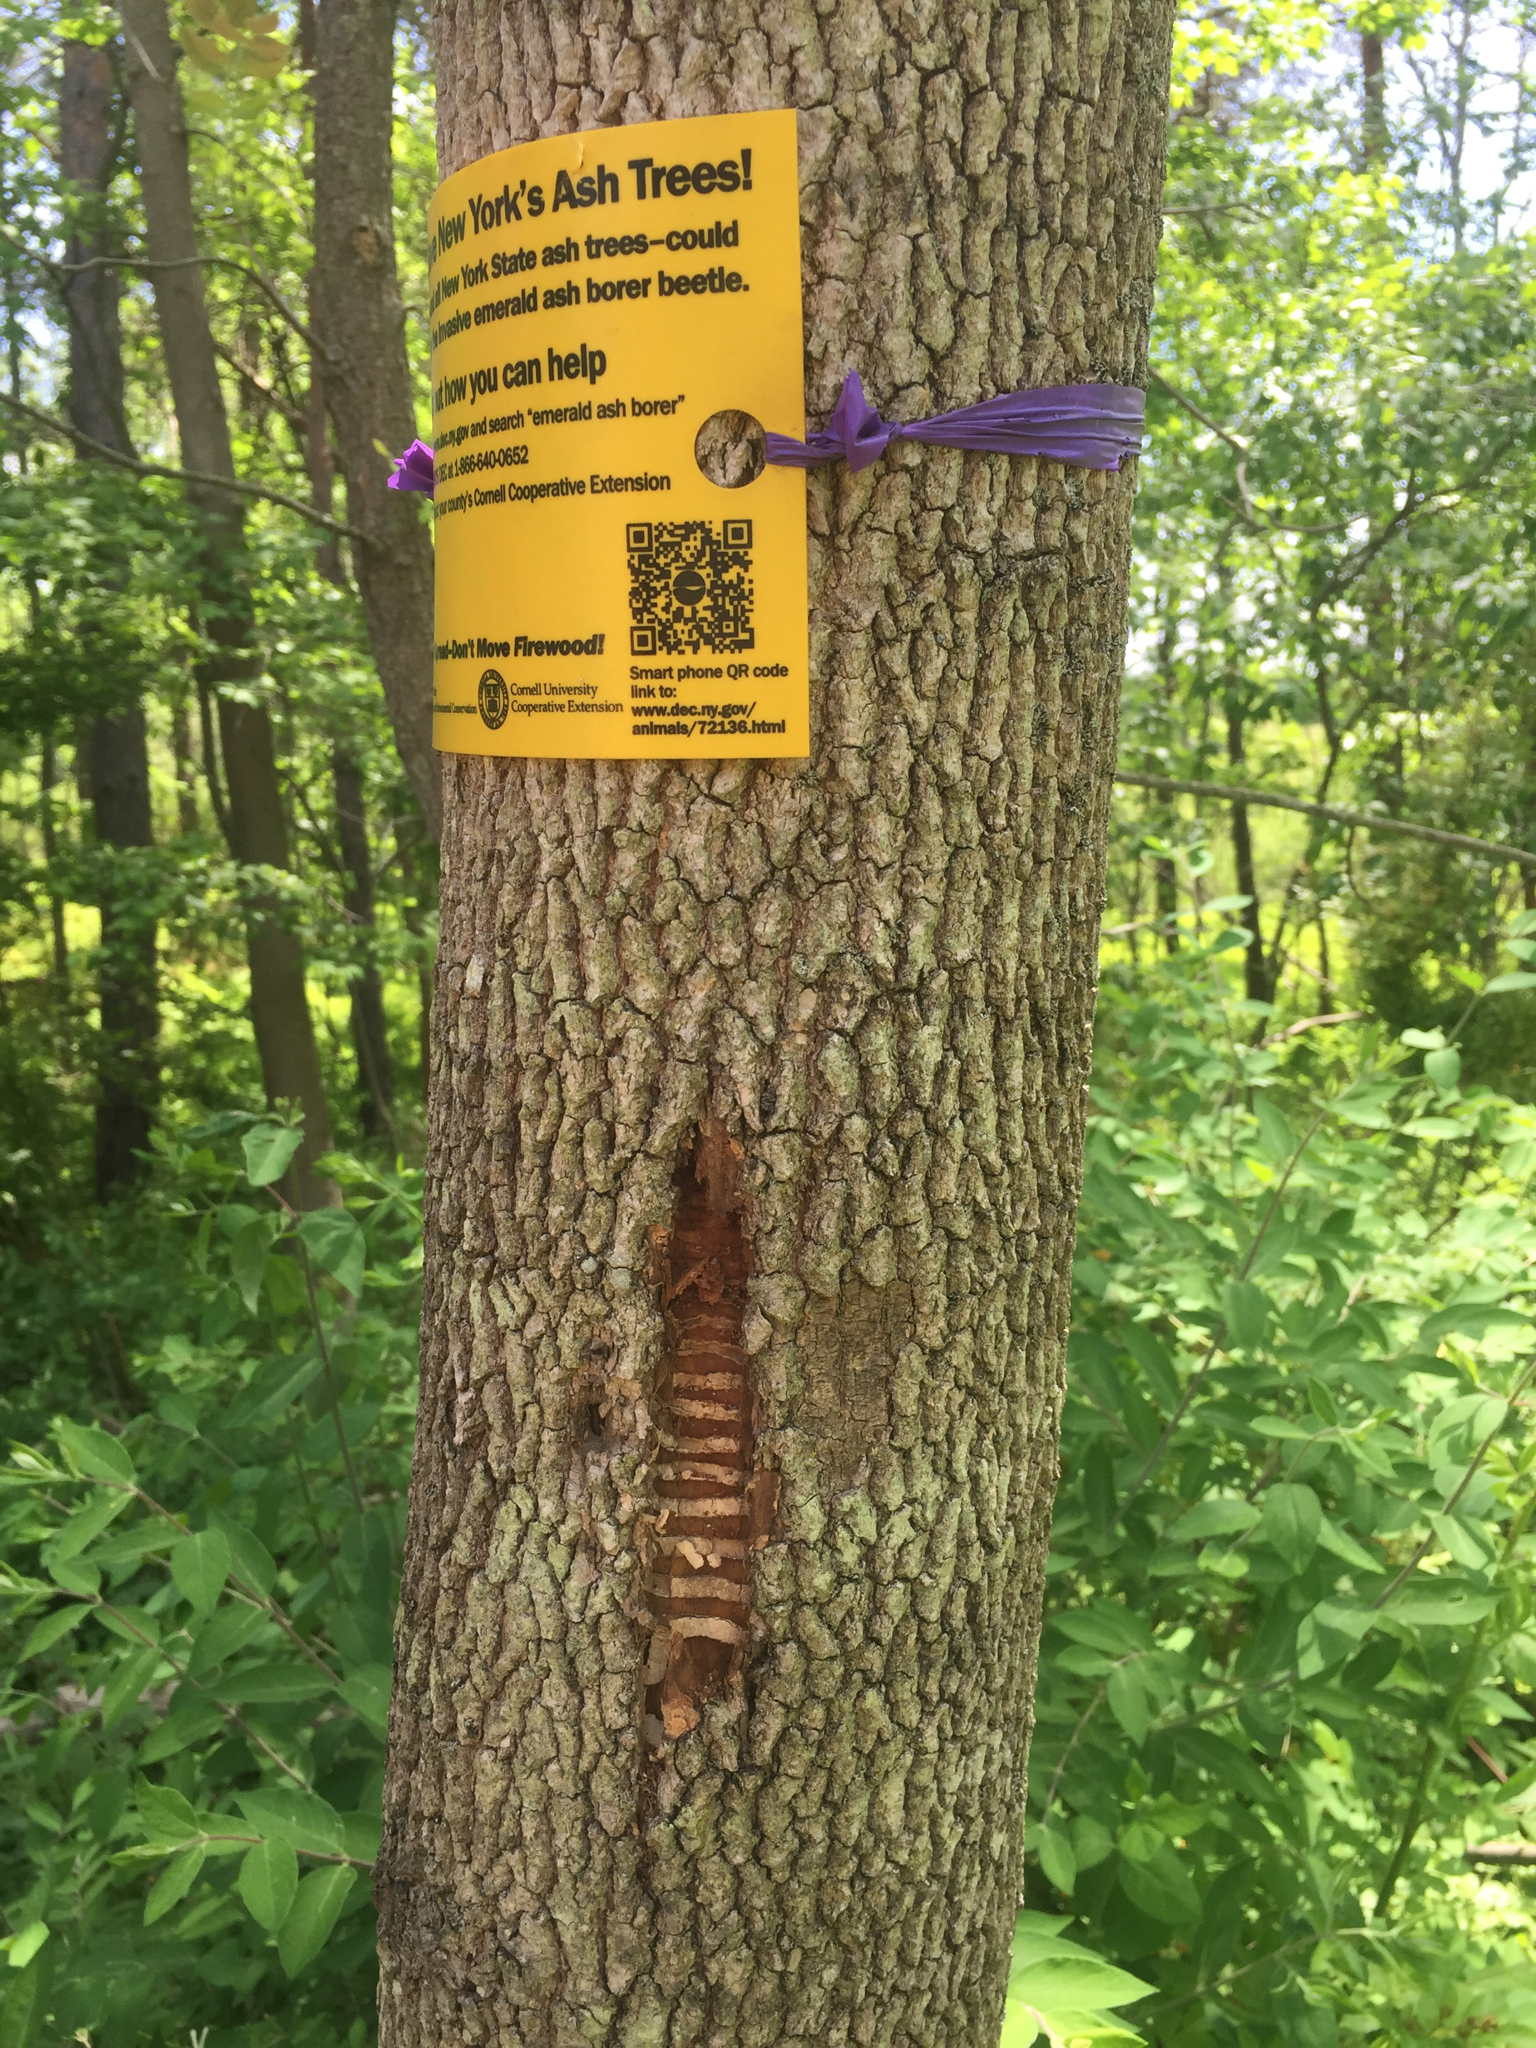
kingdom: Animalia
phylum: Arthropoda
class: Insecta
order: Coleoptera
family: Buprestidae
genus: Agrilus
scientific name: Agrilus planipennis
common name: Emerald ash borer
